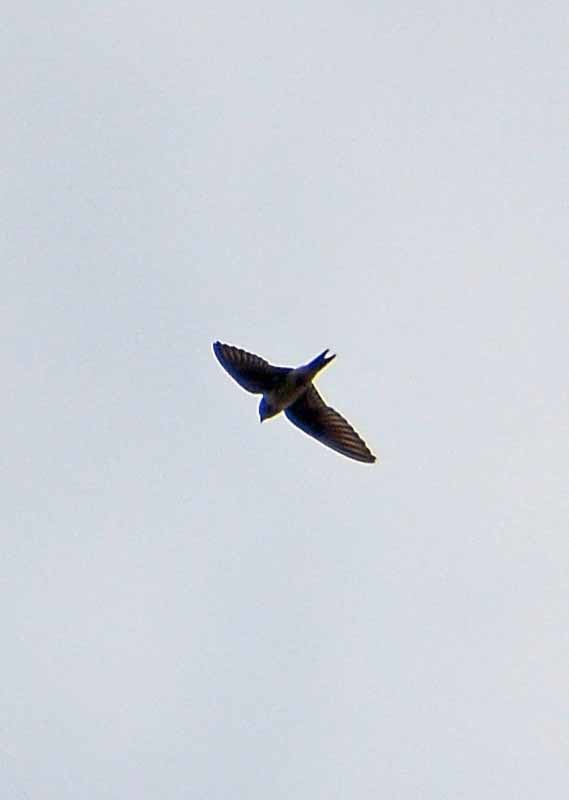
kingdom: Animalia
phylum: Chordata
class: Aves
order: Passeriformes
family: Hirundinidae
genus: Hirundo
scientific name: Hirundo rustica
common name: Barn swallow
